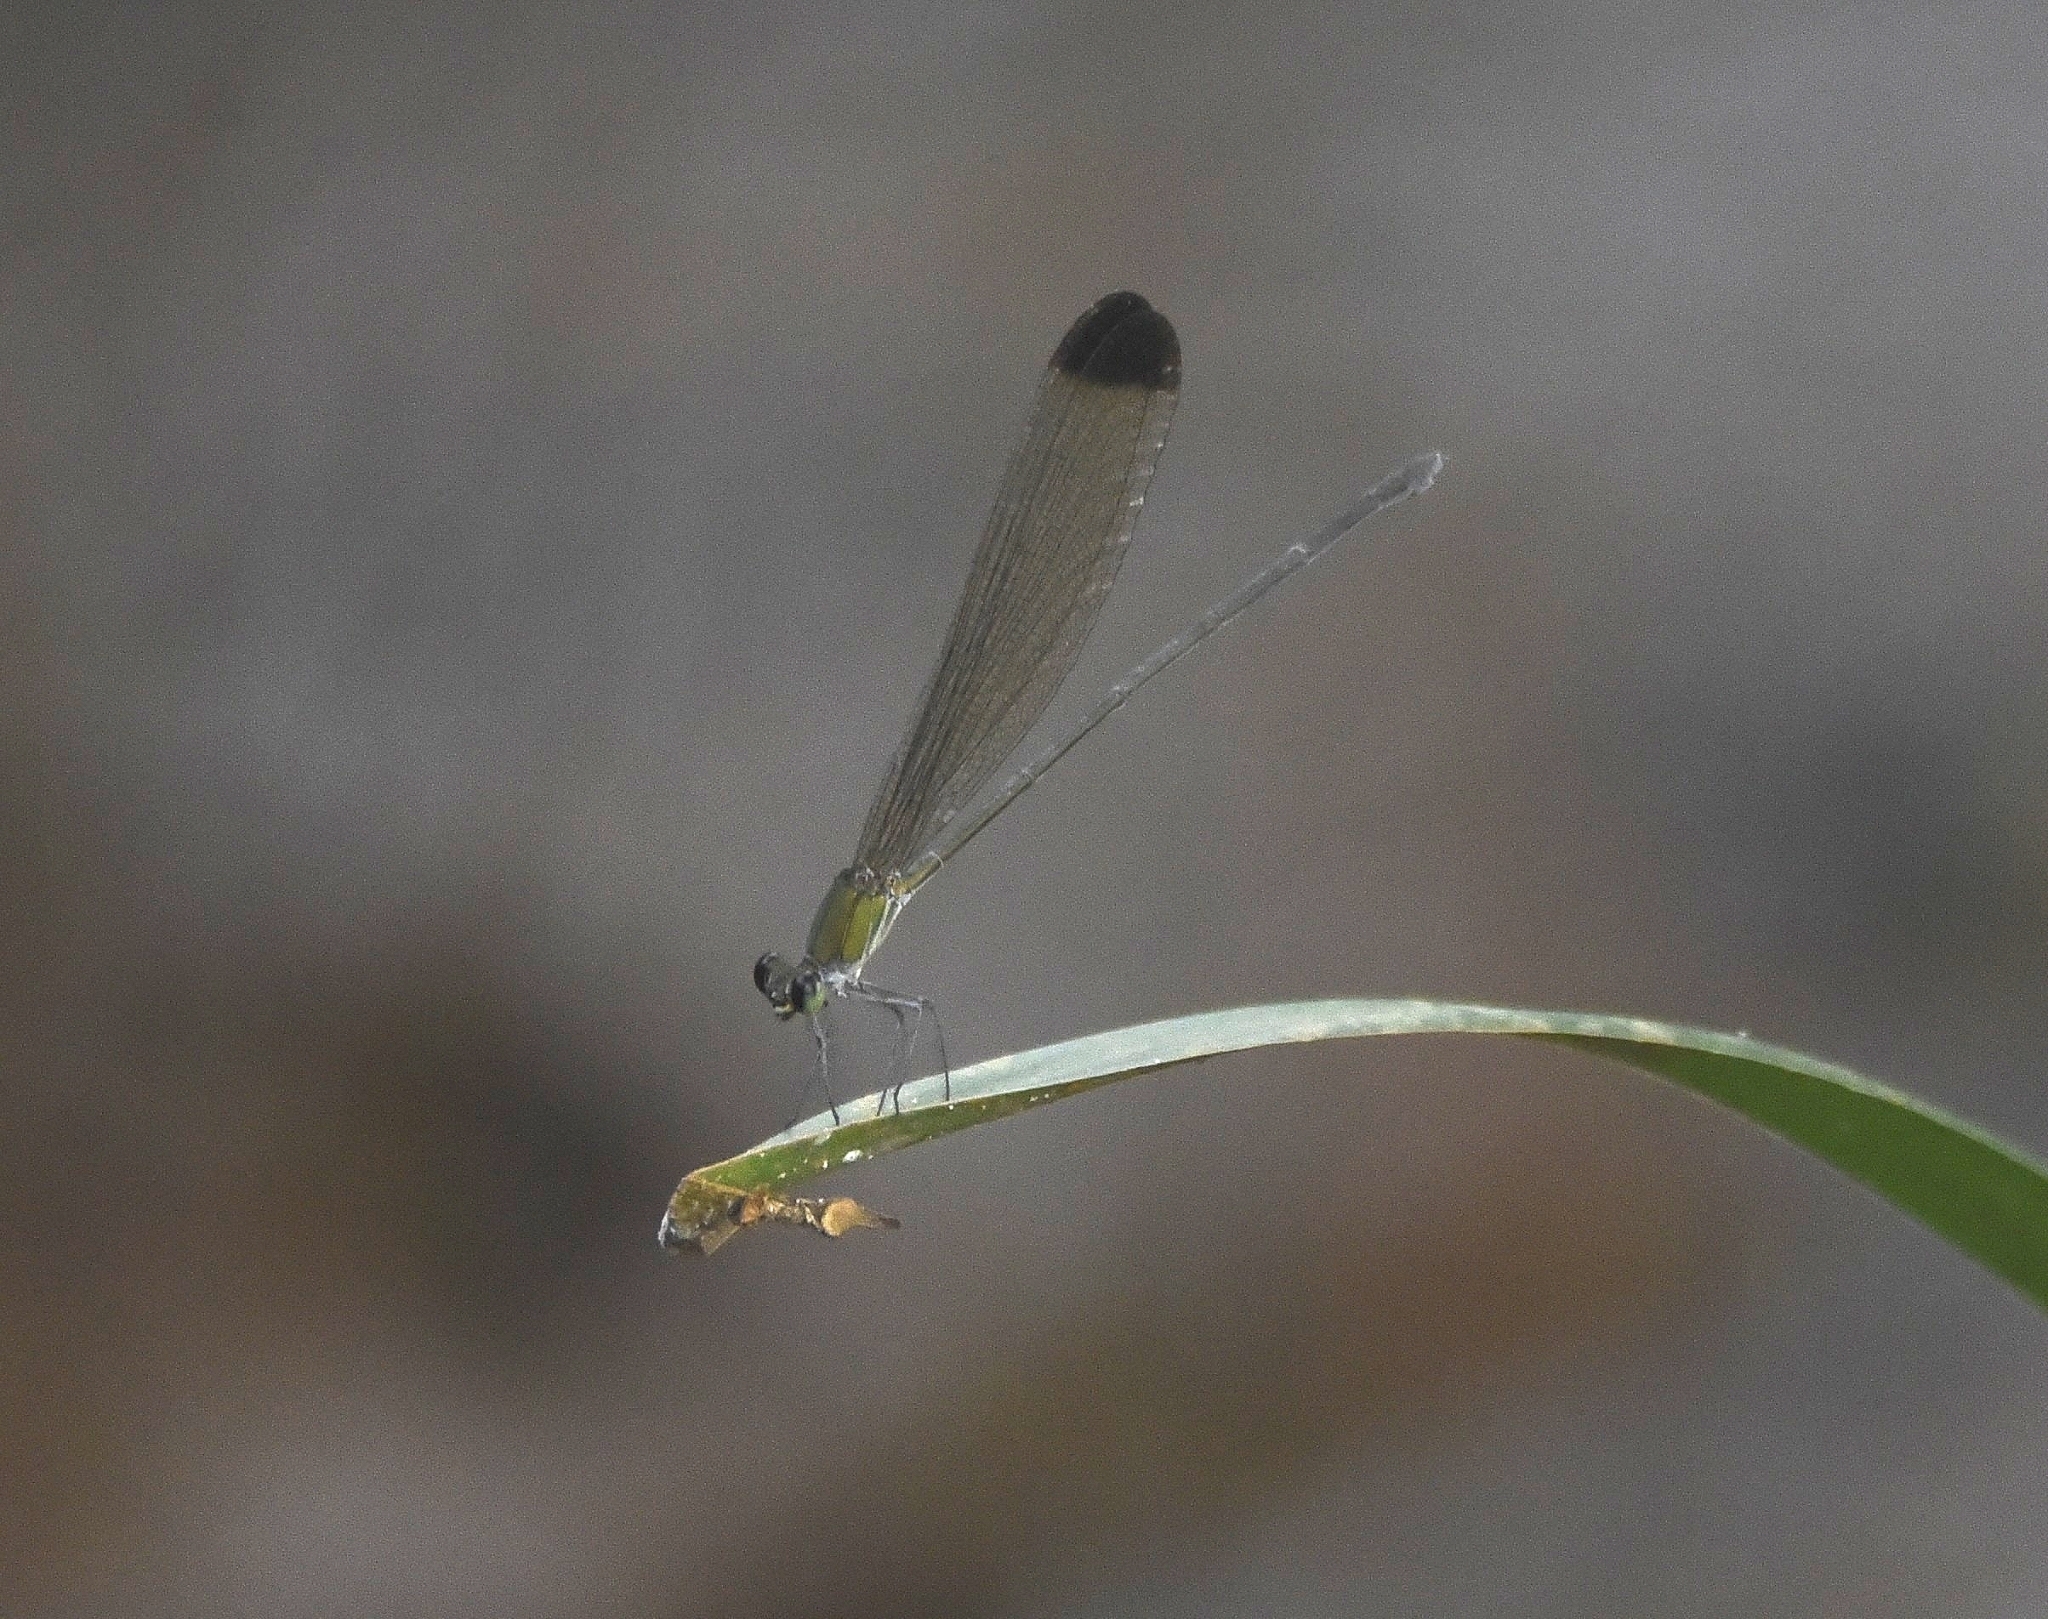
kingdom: Animalia
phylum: Arthropoda
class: Insecta
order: Odonata
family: Calopterygidae
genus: Vestalis
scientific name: Vestalis apicalis
